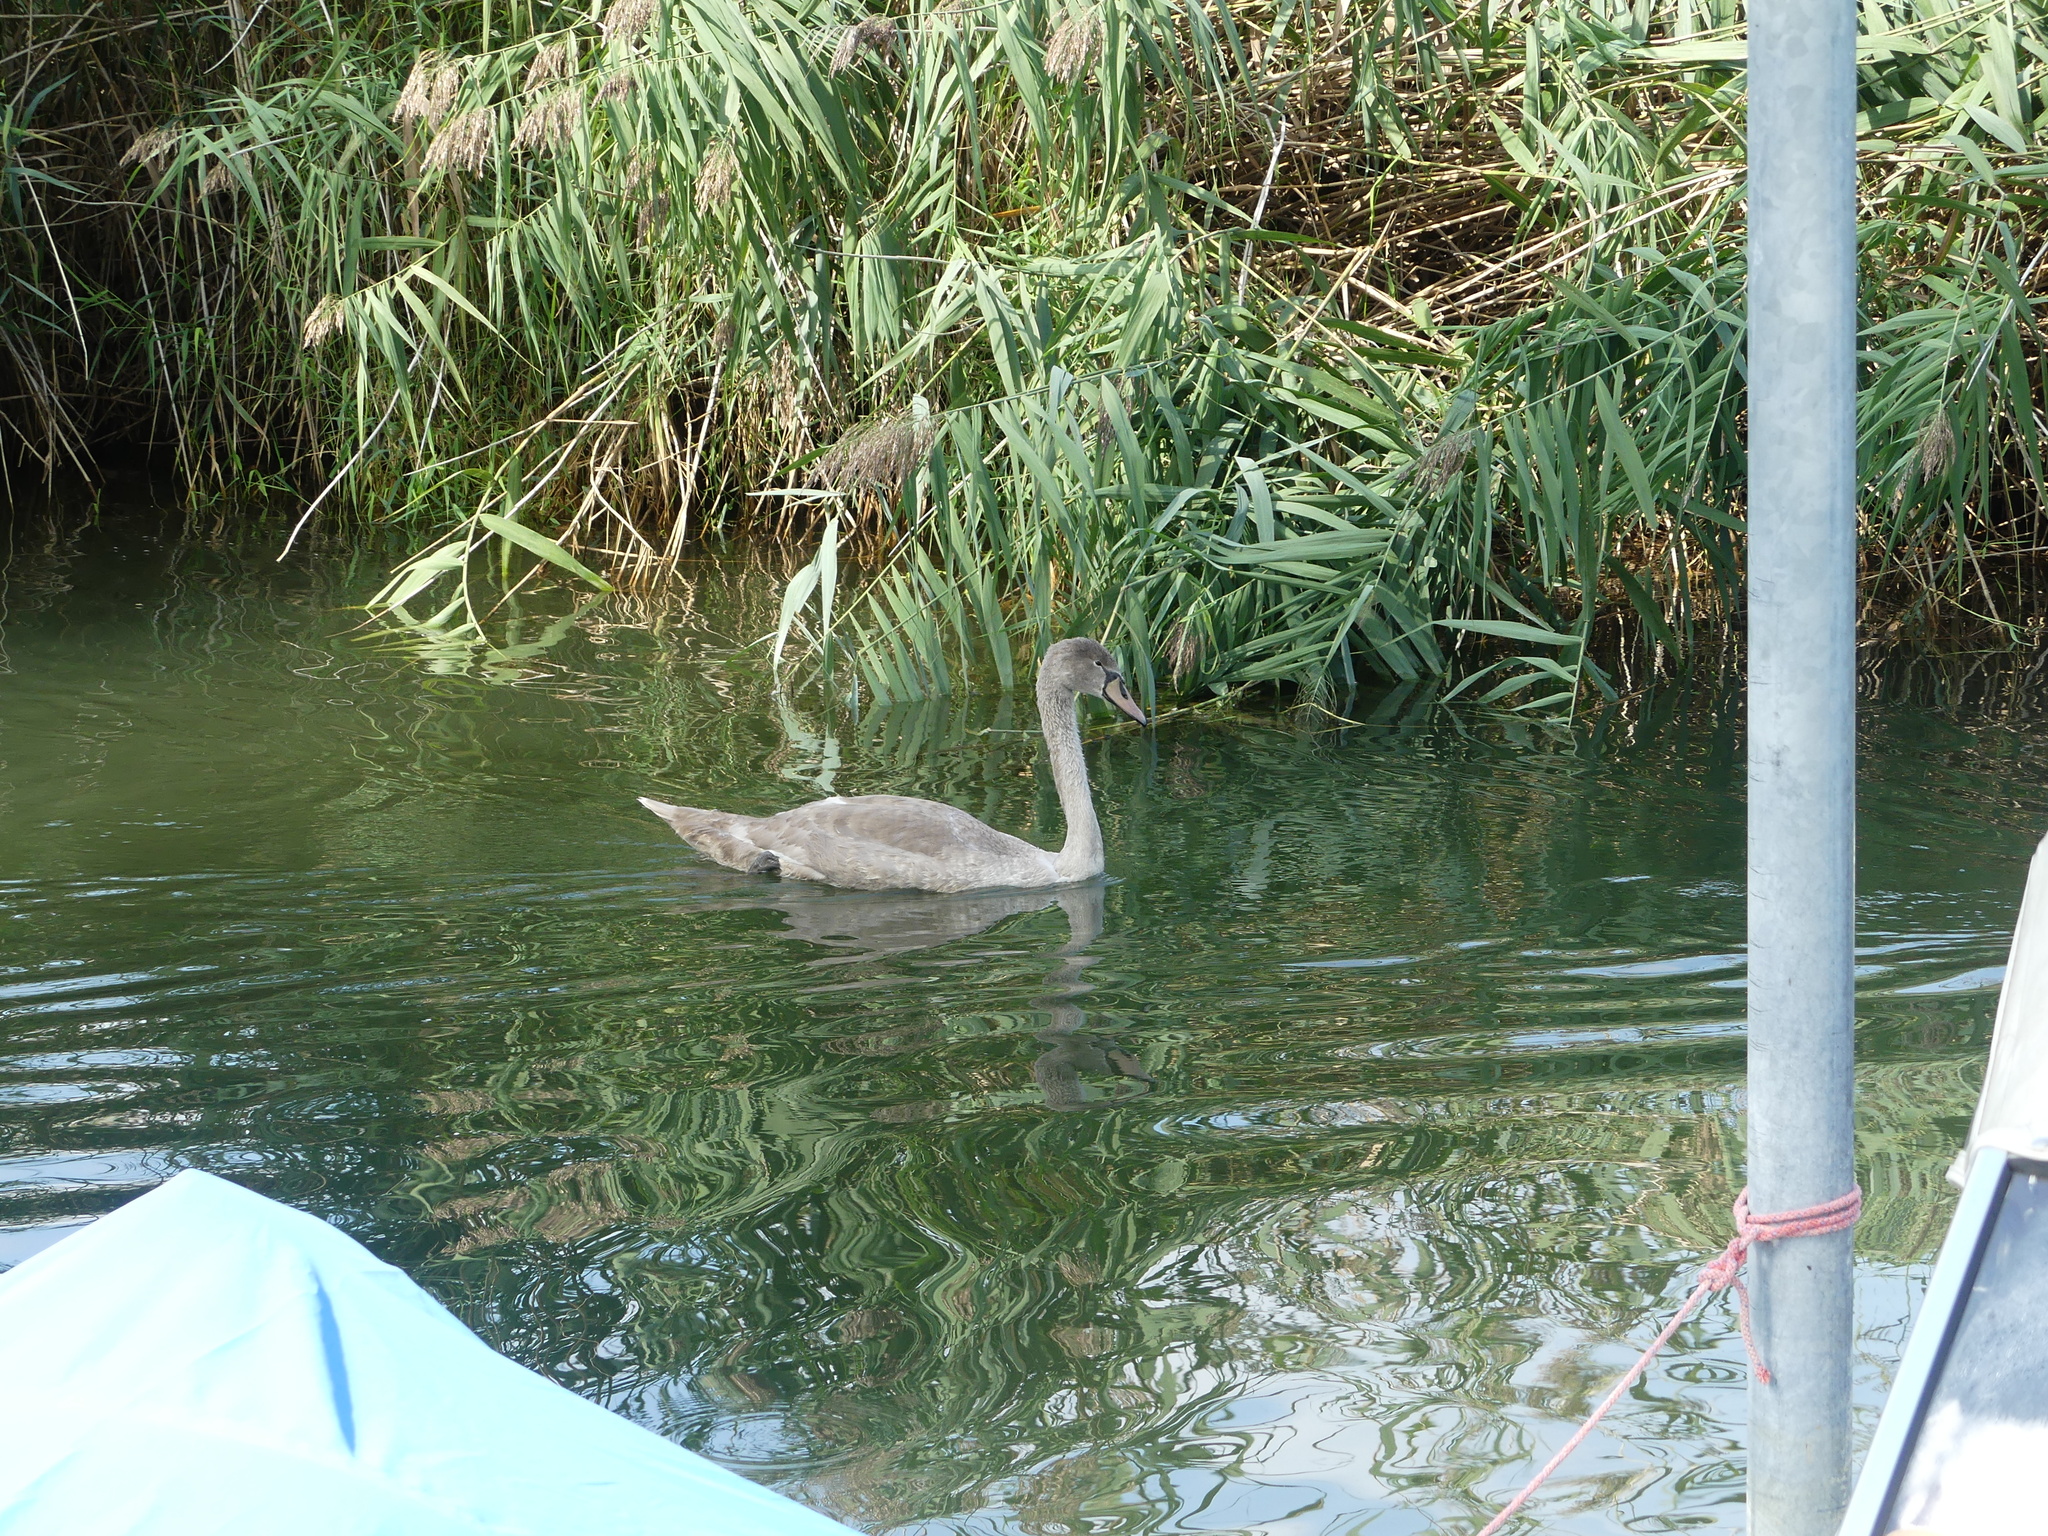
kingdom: Animalia
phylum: Chordata
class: Aves
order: Anseriformes
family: Anatidae
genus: Cygnus
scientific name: Cygnus olor
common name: Mute swan
